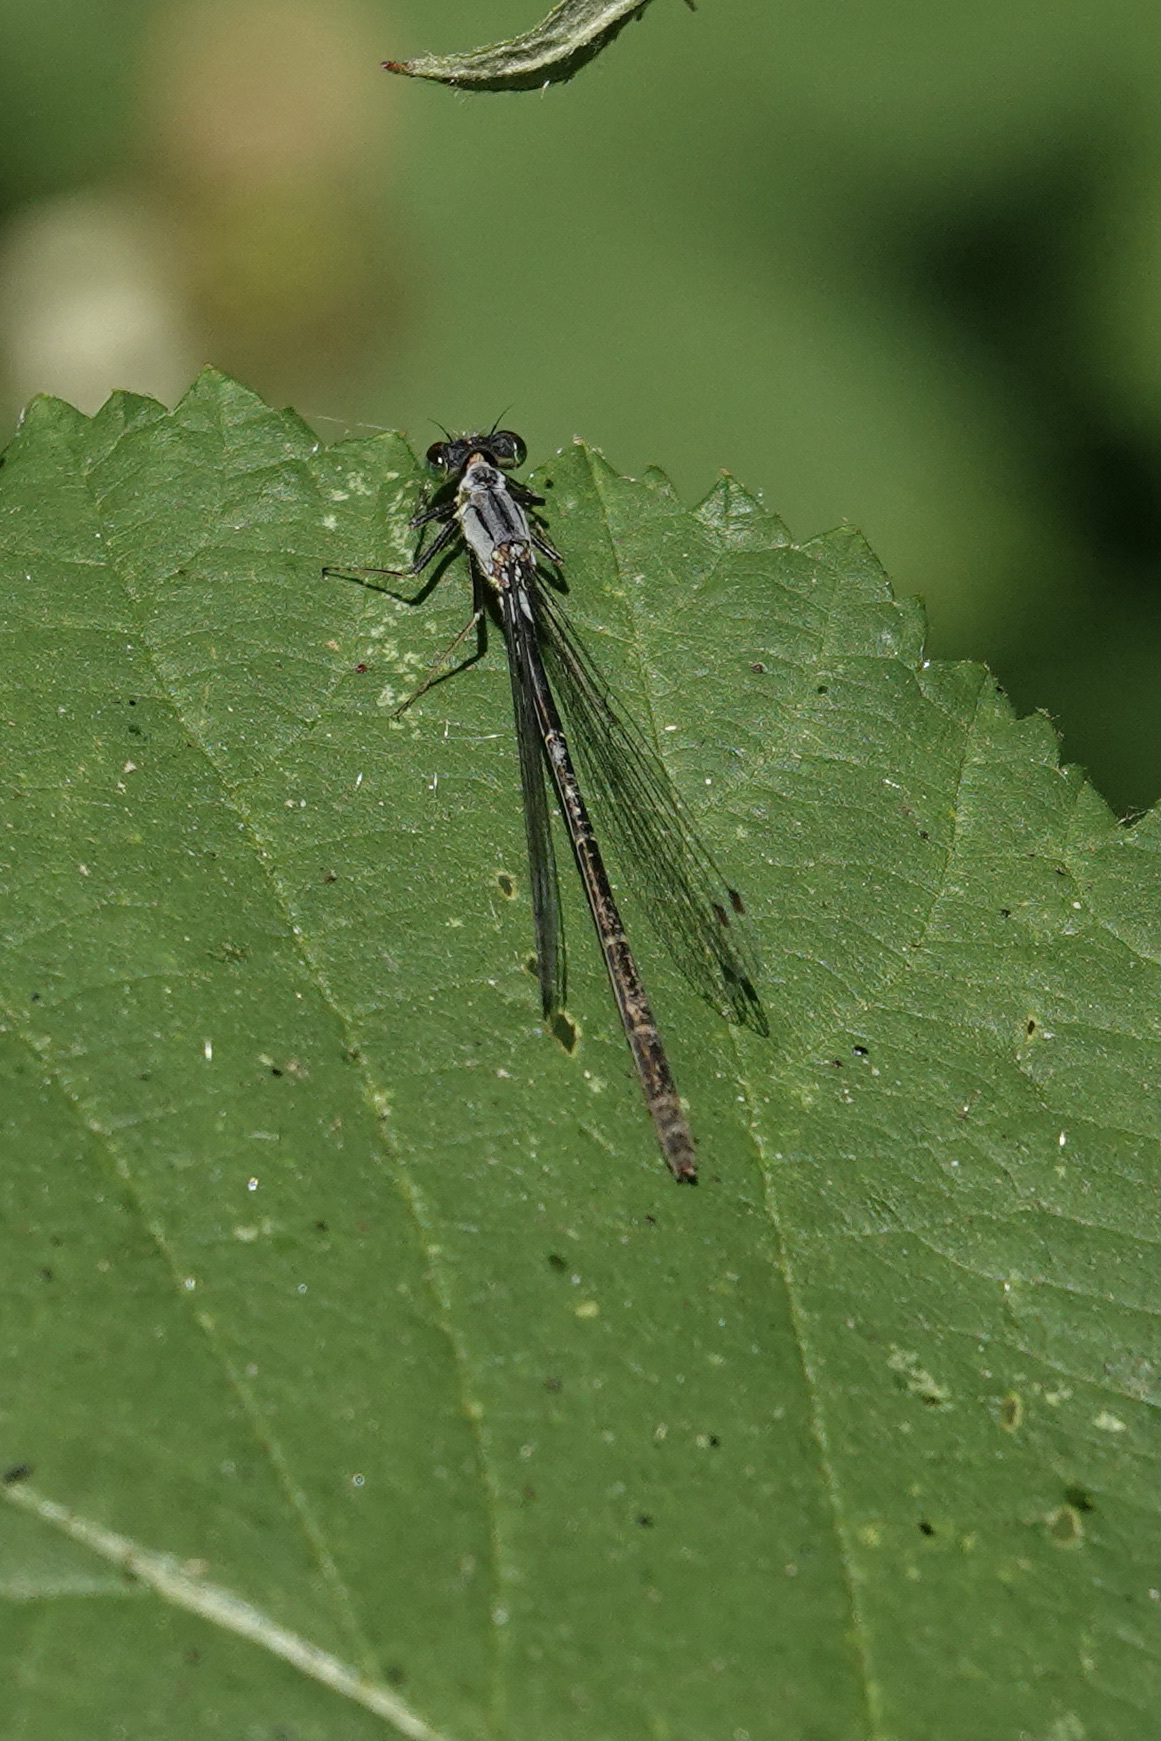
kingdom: Animalia
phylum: Arthropoda
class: Insecta
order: Odonata
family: Coenagrionidae
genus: Ischnura
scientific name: Ischnura cervula
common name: Pacific forktail
